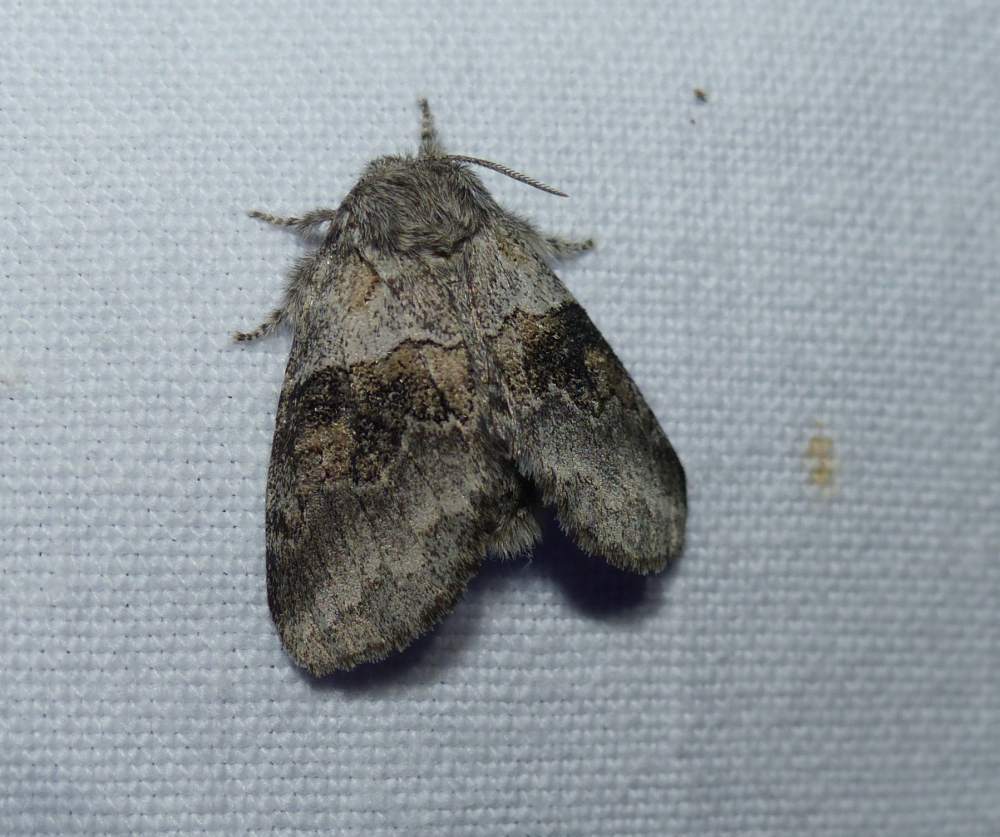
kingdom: Animalia
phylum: Arthropoda
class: Insecta
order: Lepidoptera
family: Notodontidae
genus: Gluphisia
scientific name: Gluphisia septentrionis
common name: Common gluphisia
